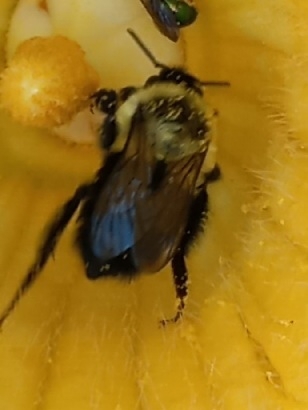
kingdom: Animalia
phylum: Arthropoda
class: Insecta
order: Hymenoptera
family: Apidae
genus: Bombus
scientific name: Bombus impatiens
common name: Common eastern bumble bee
